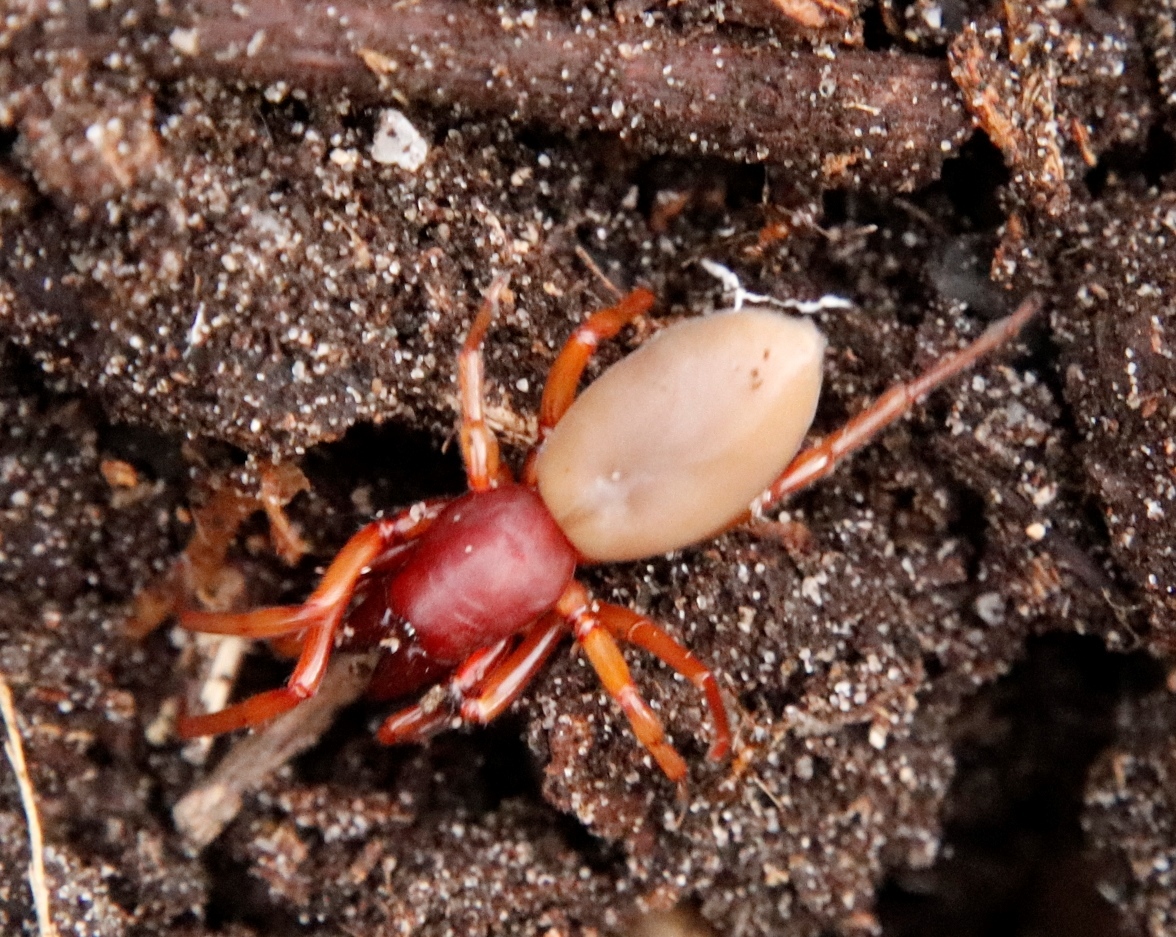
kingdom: Animalia
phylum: Arthropoda
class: Arachnida
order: Araneae
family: Dysderidae
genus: Dysdera
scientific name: Dysdera crocata
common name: Woodlouse spider
